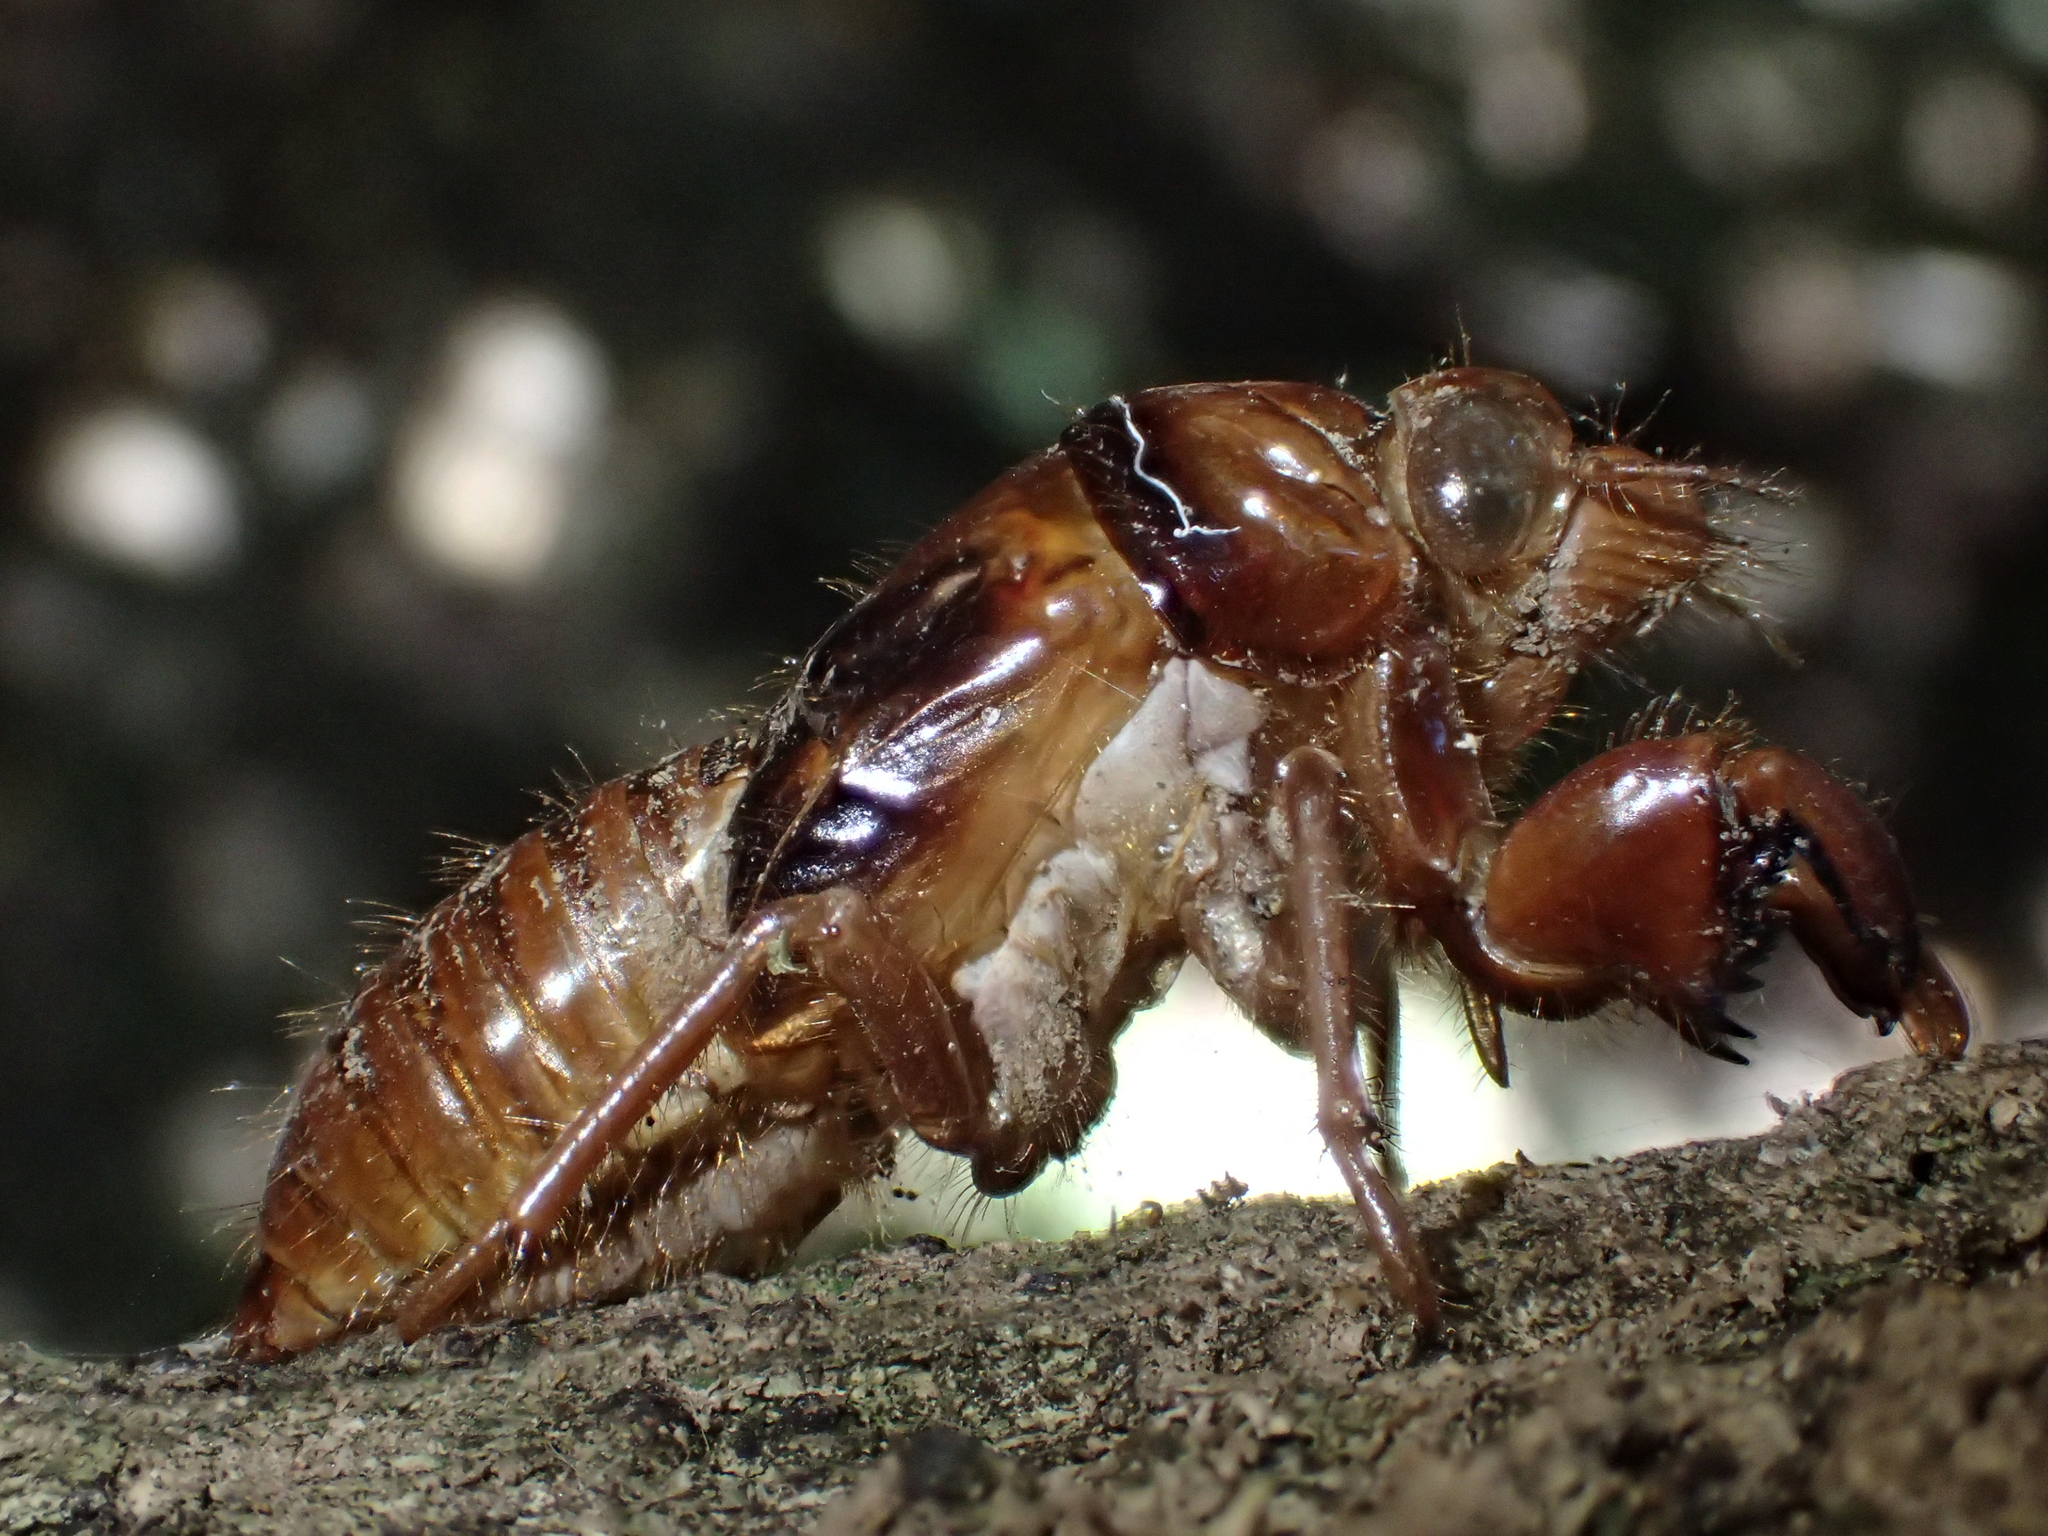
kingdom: Animalia
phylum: Arthropoda
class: Insecta
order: Hemiptera
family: Cicadidae
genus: Amphipsalta
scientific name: Amphipsalta
